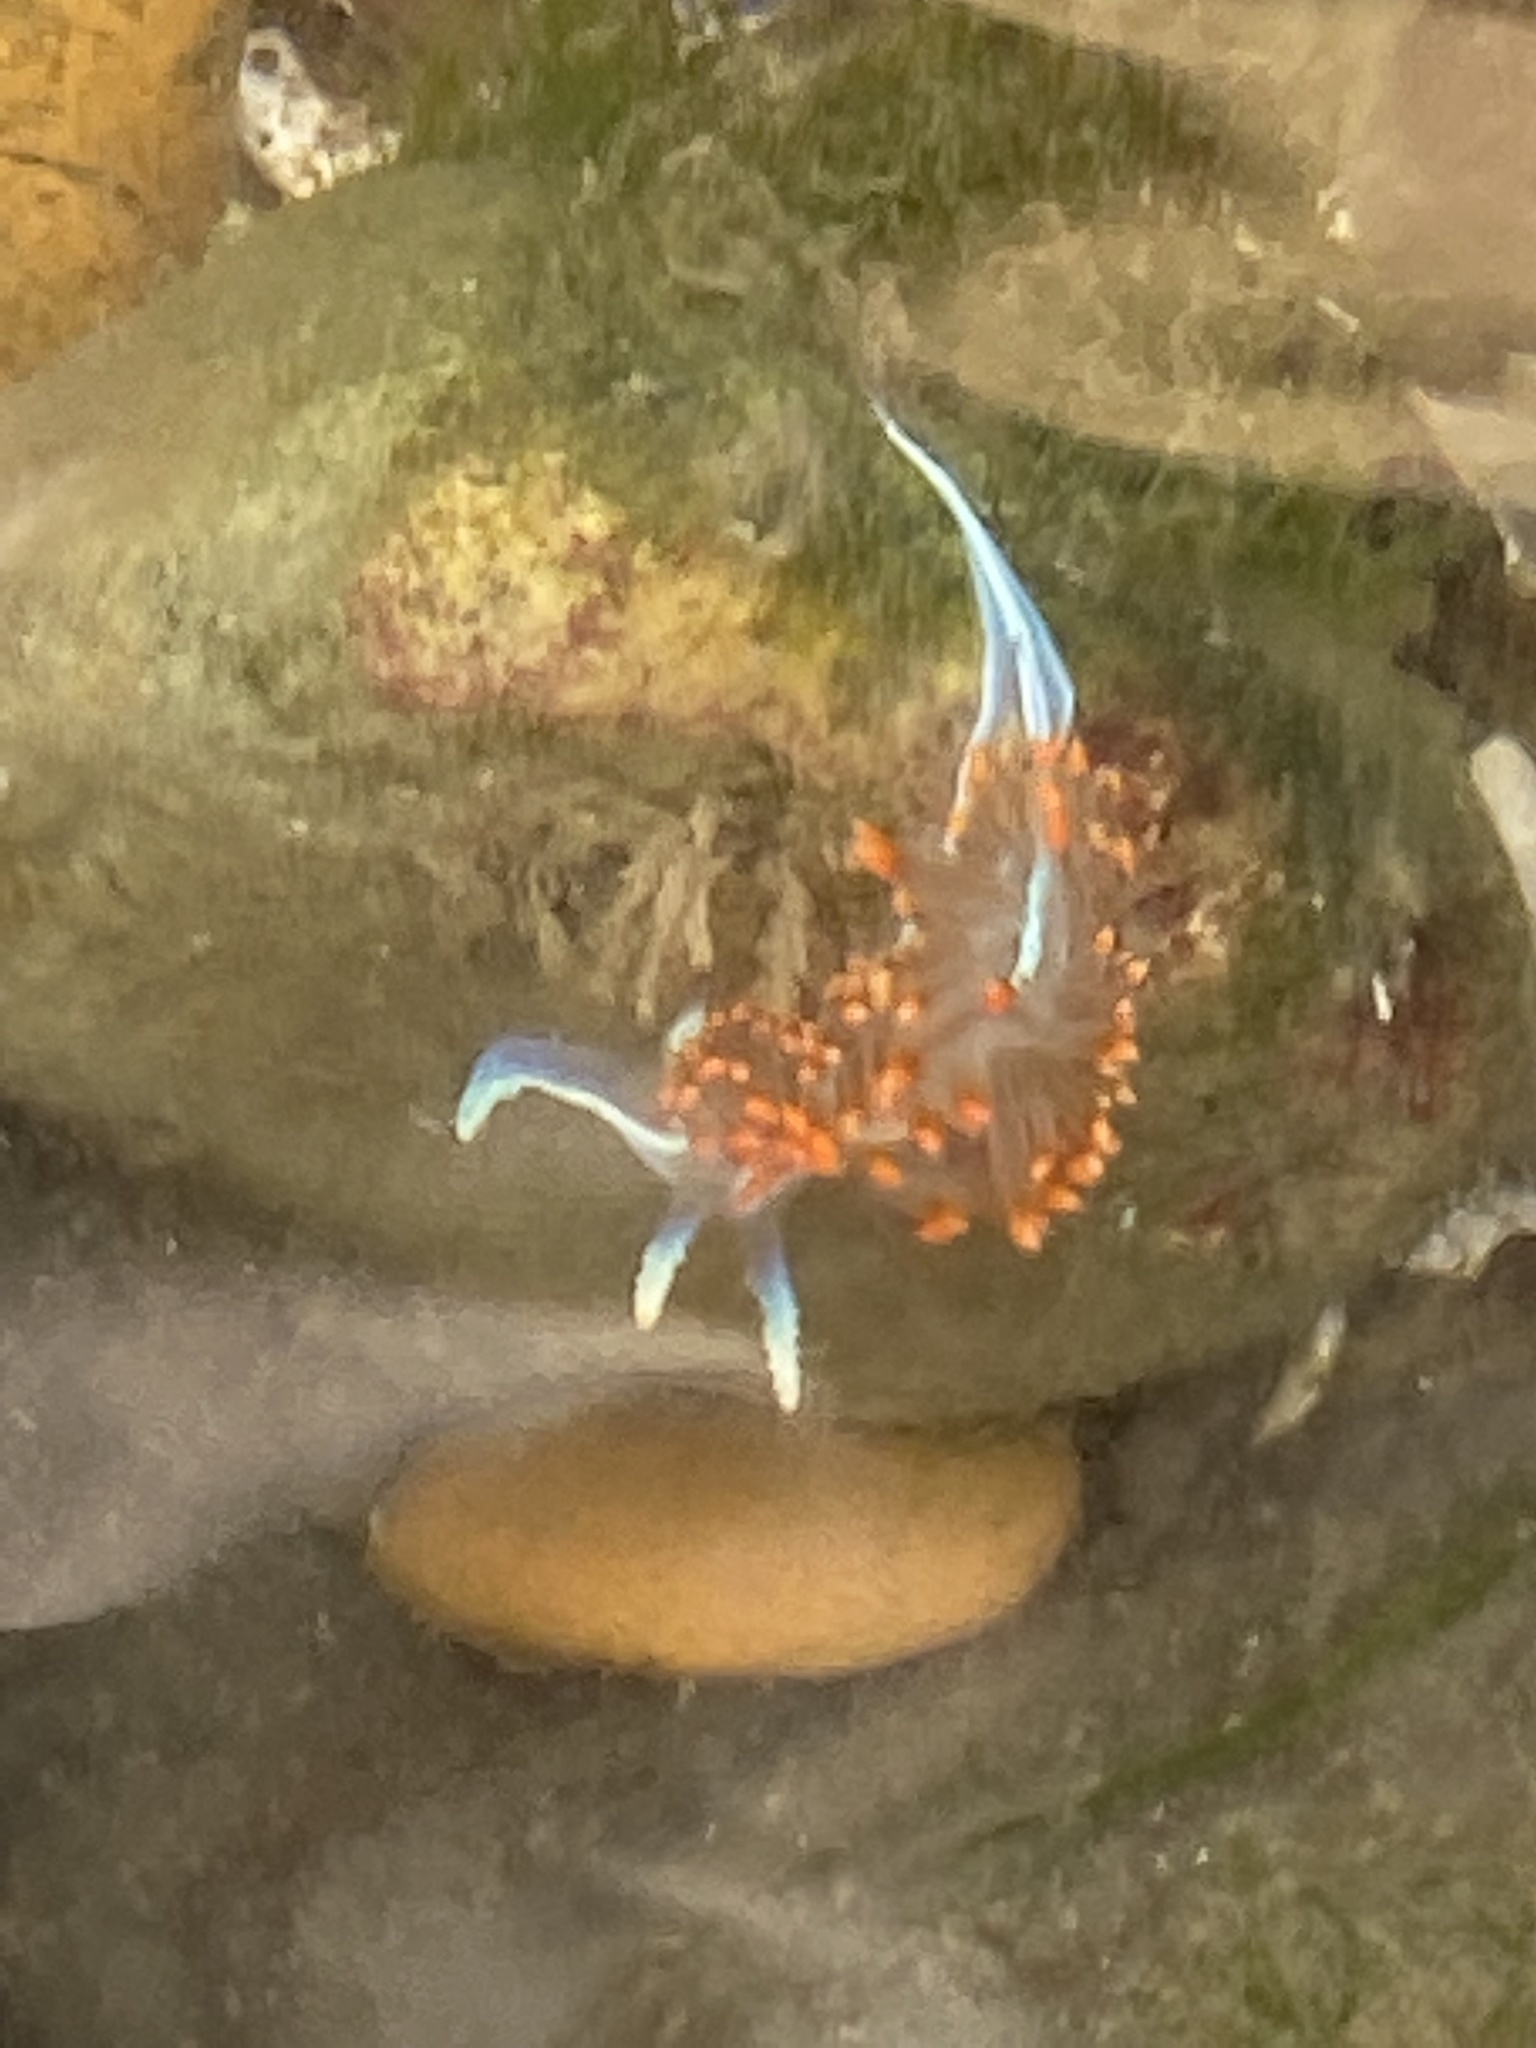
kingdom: Animalia
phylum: Mollusca
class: Gastropoda
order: Nudibranchia
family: Myrrhinidae
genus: Hermissenda
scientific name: Hermissenda opalescens
